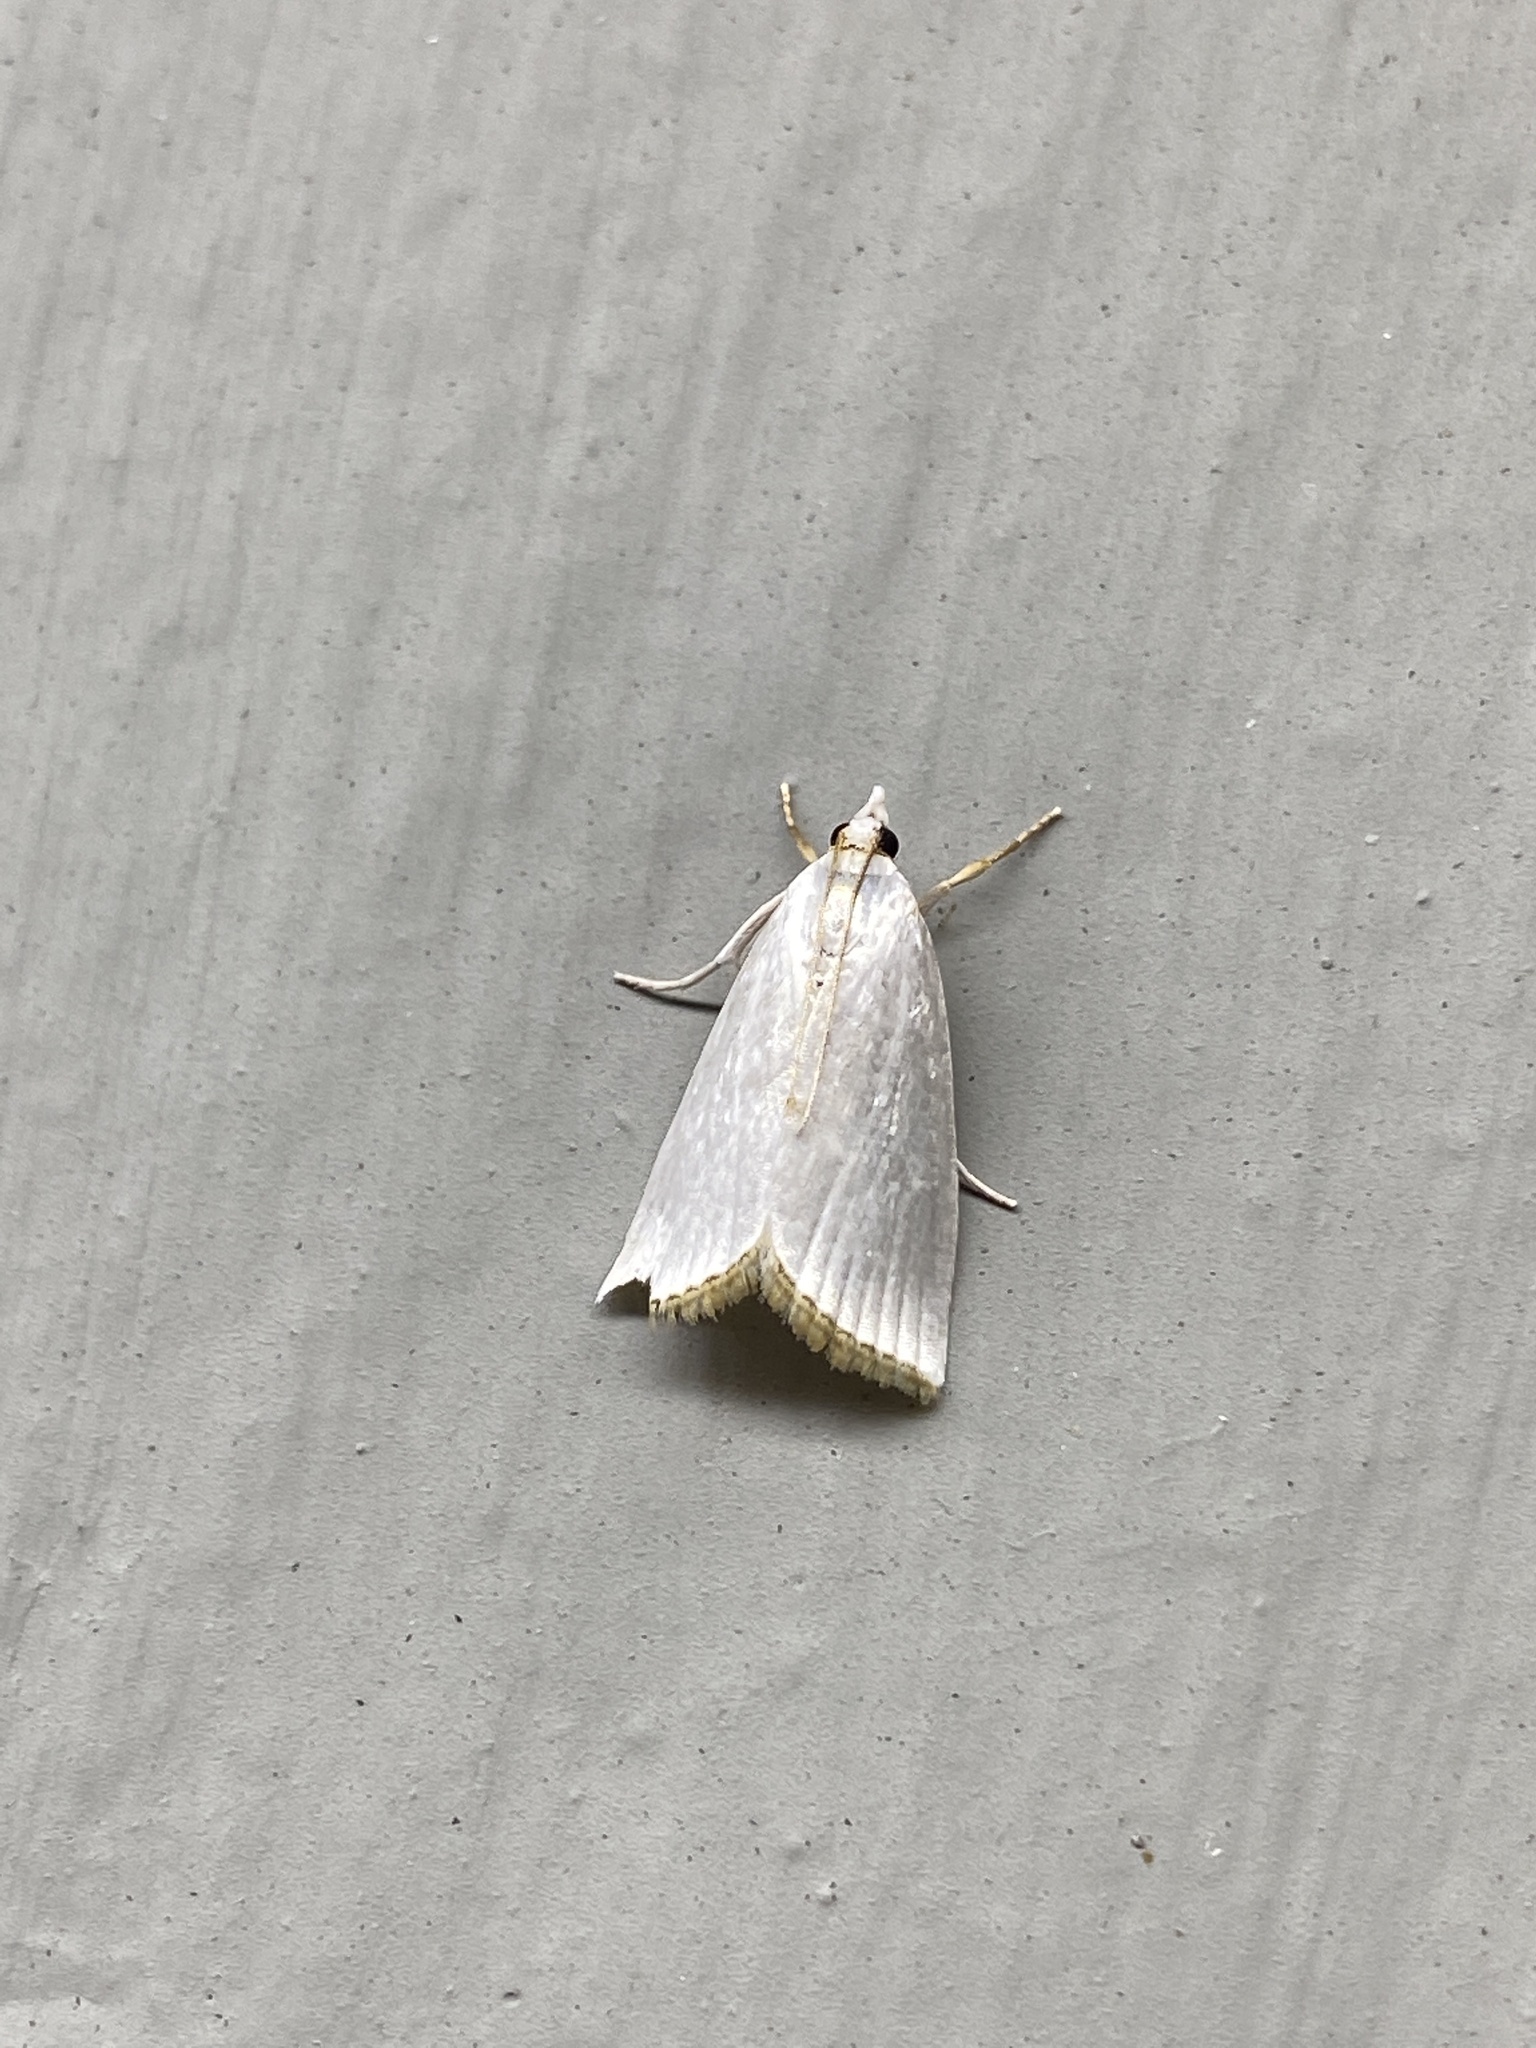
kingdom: Animalia
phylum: Arthropoda
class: Insecta
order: Lepidoptera
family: Crambidae
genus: Argyria
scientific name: Argyria nivalis
